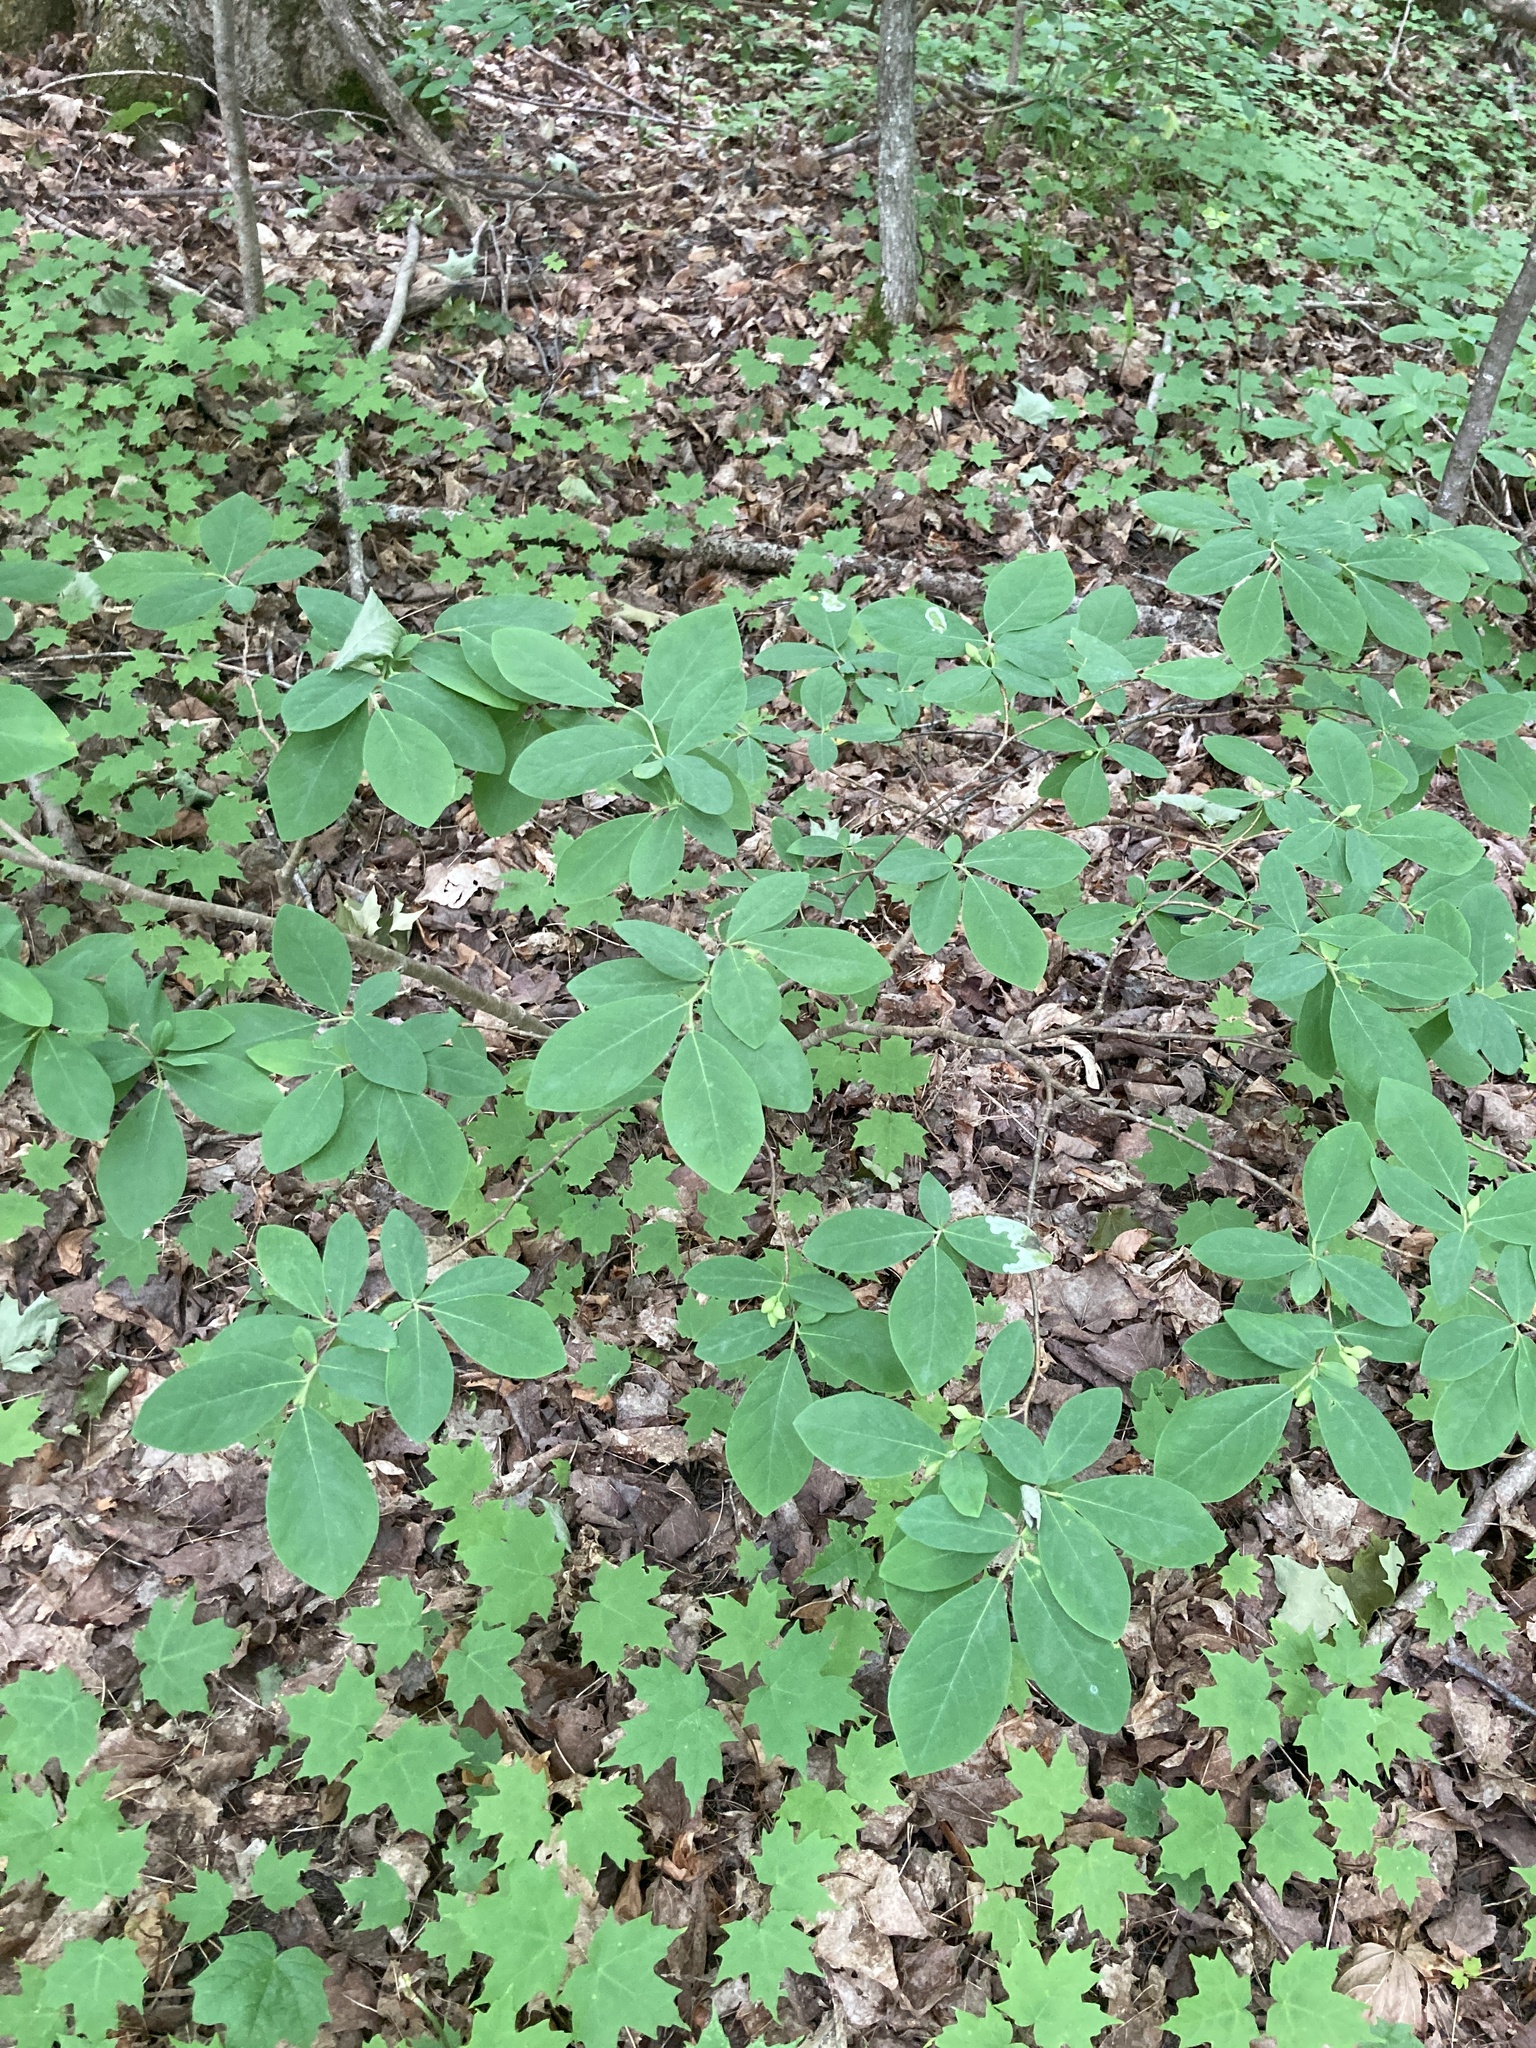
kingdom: Plantae
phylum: Tracheophyta
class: Magnoliopsida
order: Malvales
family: Thymelaeaceae
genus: Dirca
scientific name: Dirca palustris
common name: Leatherwood
